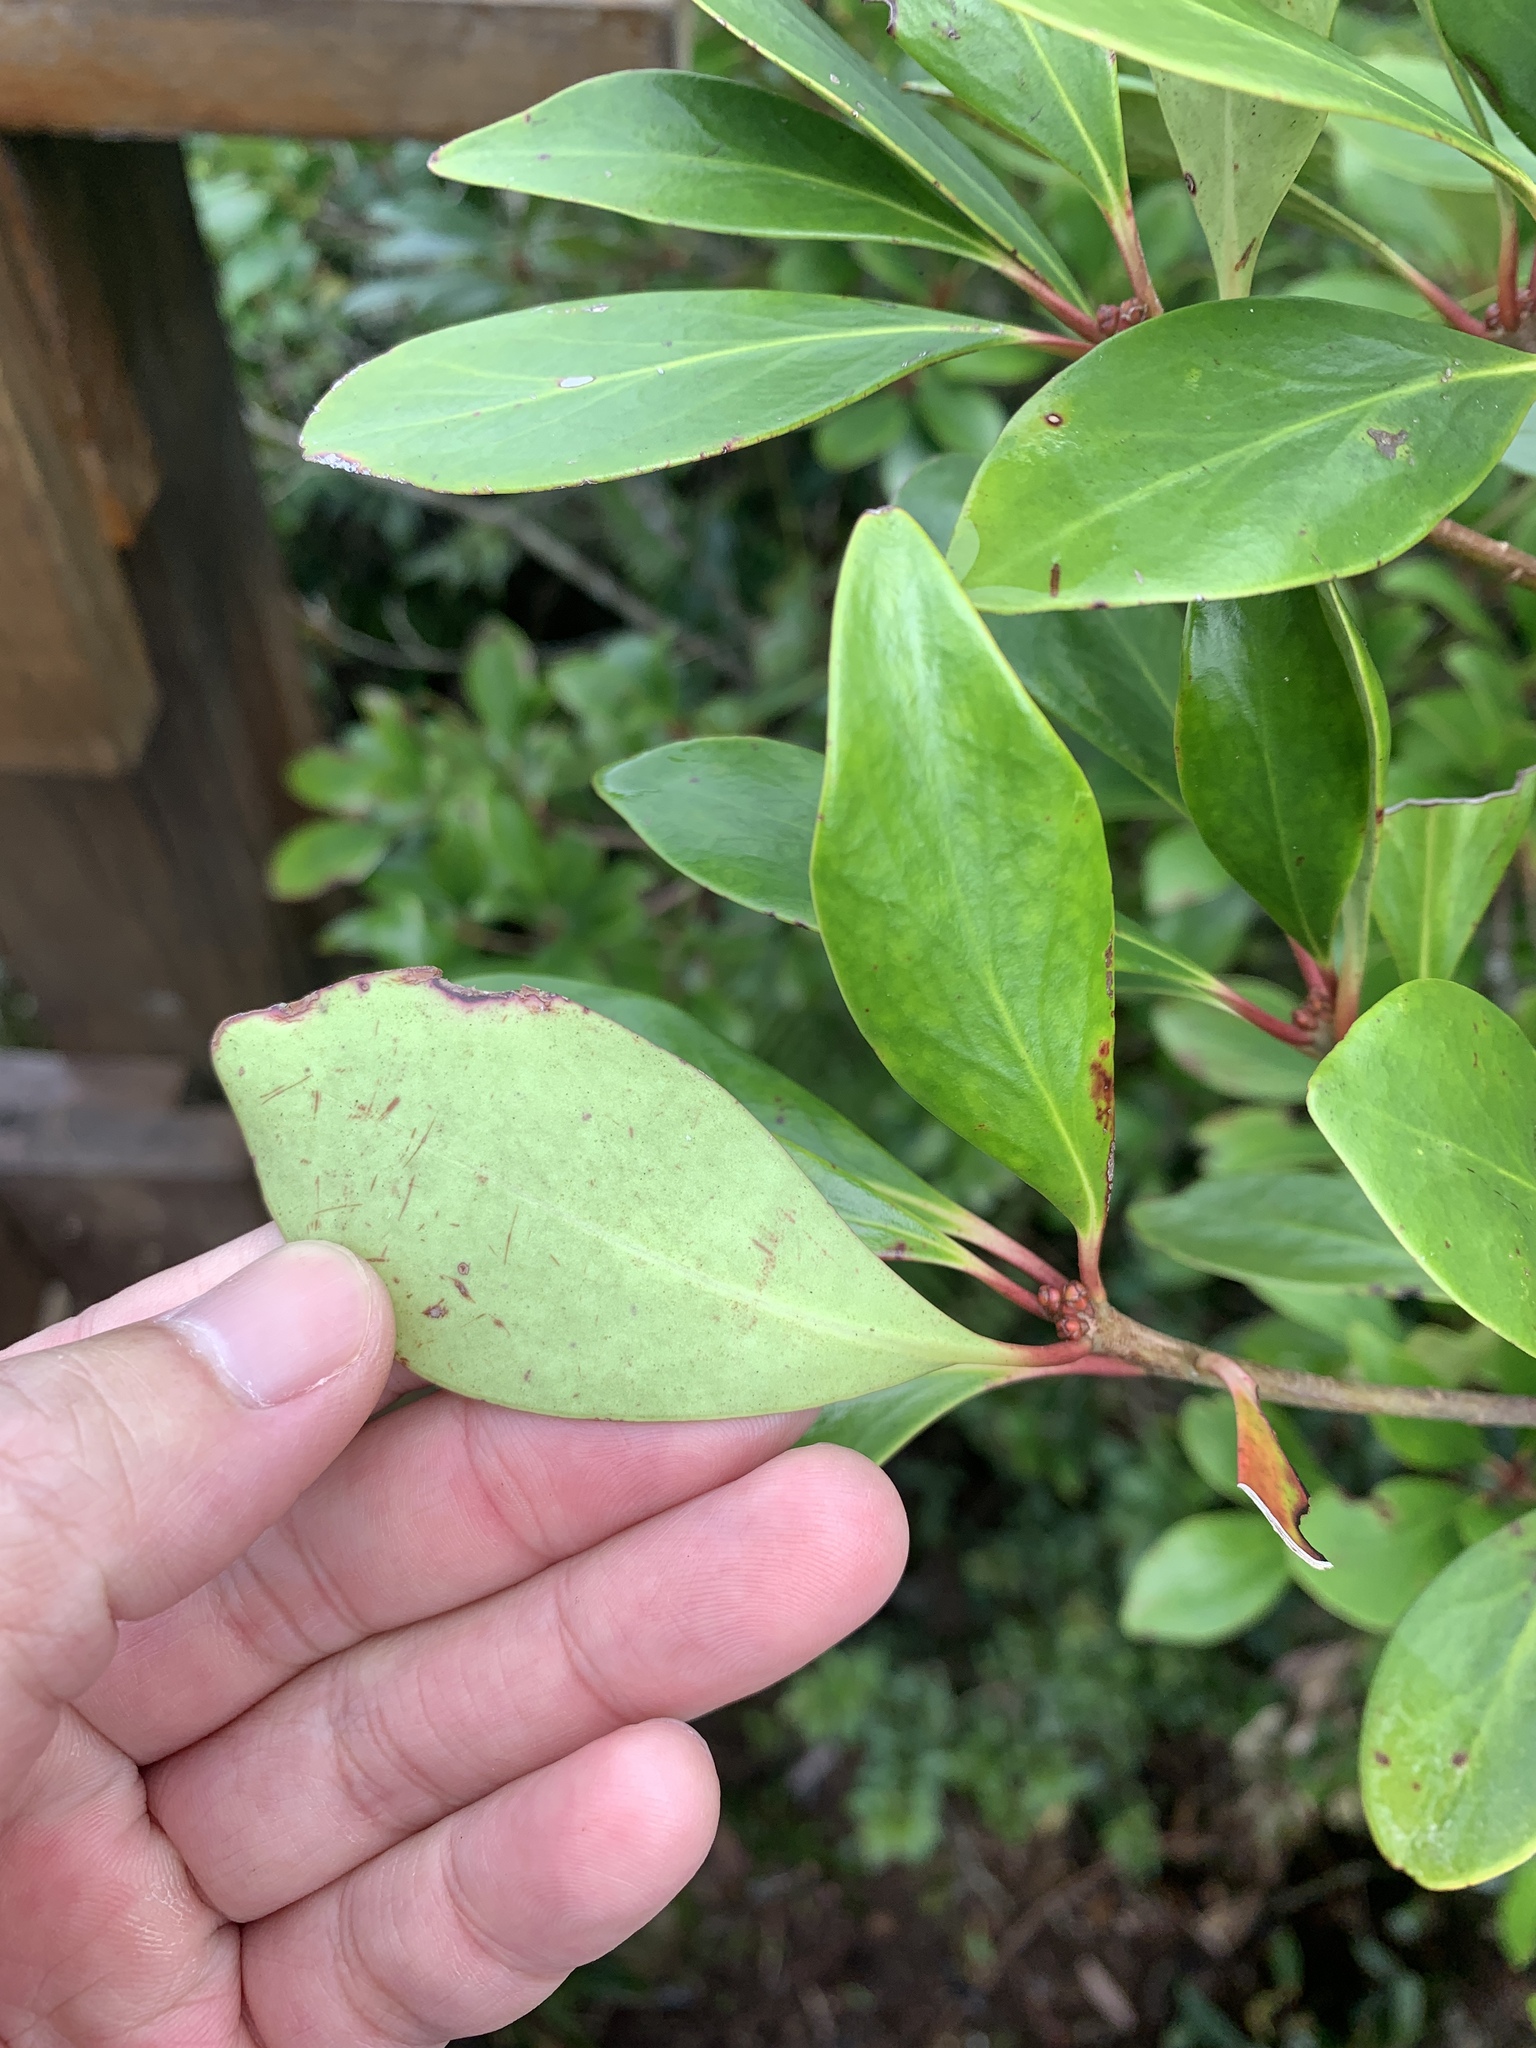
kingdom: Plantae
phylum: Tracheophyta
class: Magnoliopsida
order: Ericales
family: Pentaphylacaceae
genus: Ternstroemia
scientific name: Ternstroemia gymnanthera
